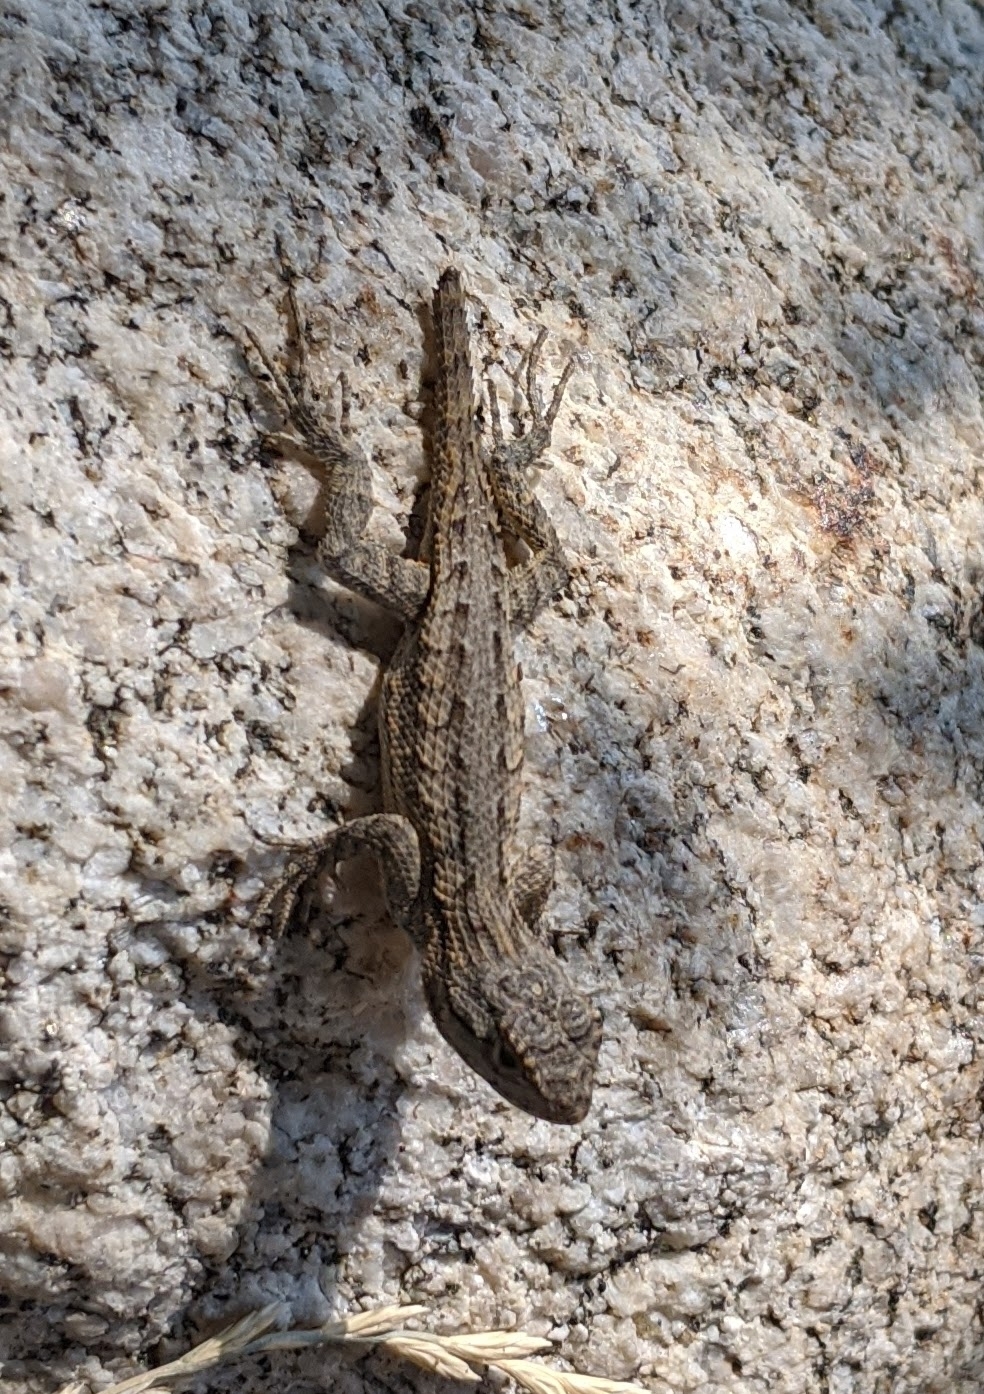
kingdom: Animalia
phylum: Chordata
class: Squamata
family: Phrynosomatidae
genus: Sceloporus
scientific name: Sceloporus occidentalis
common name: Western fence lizard
